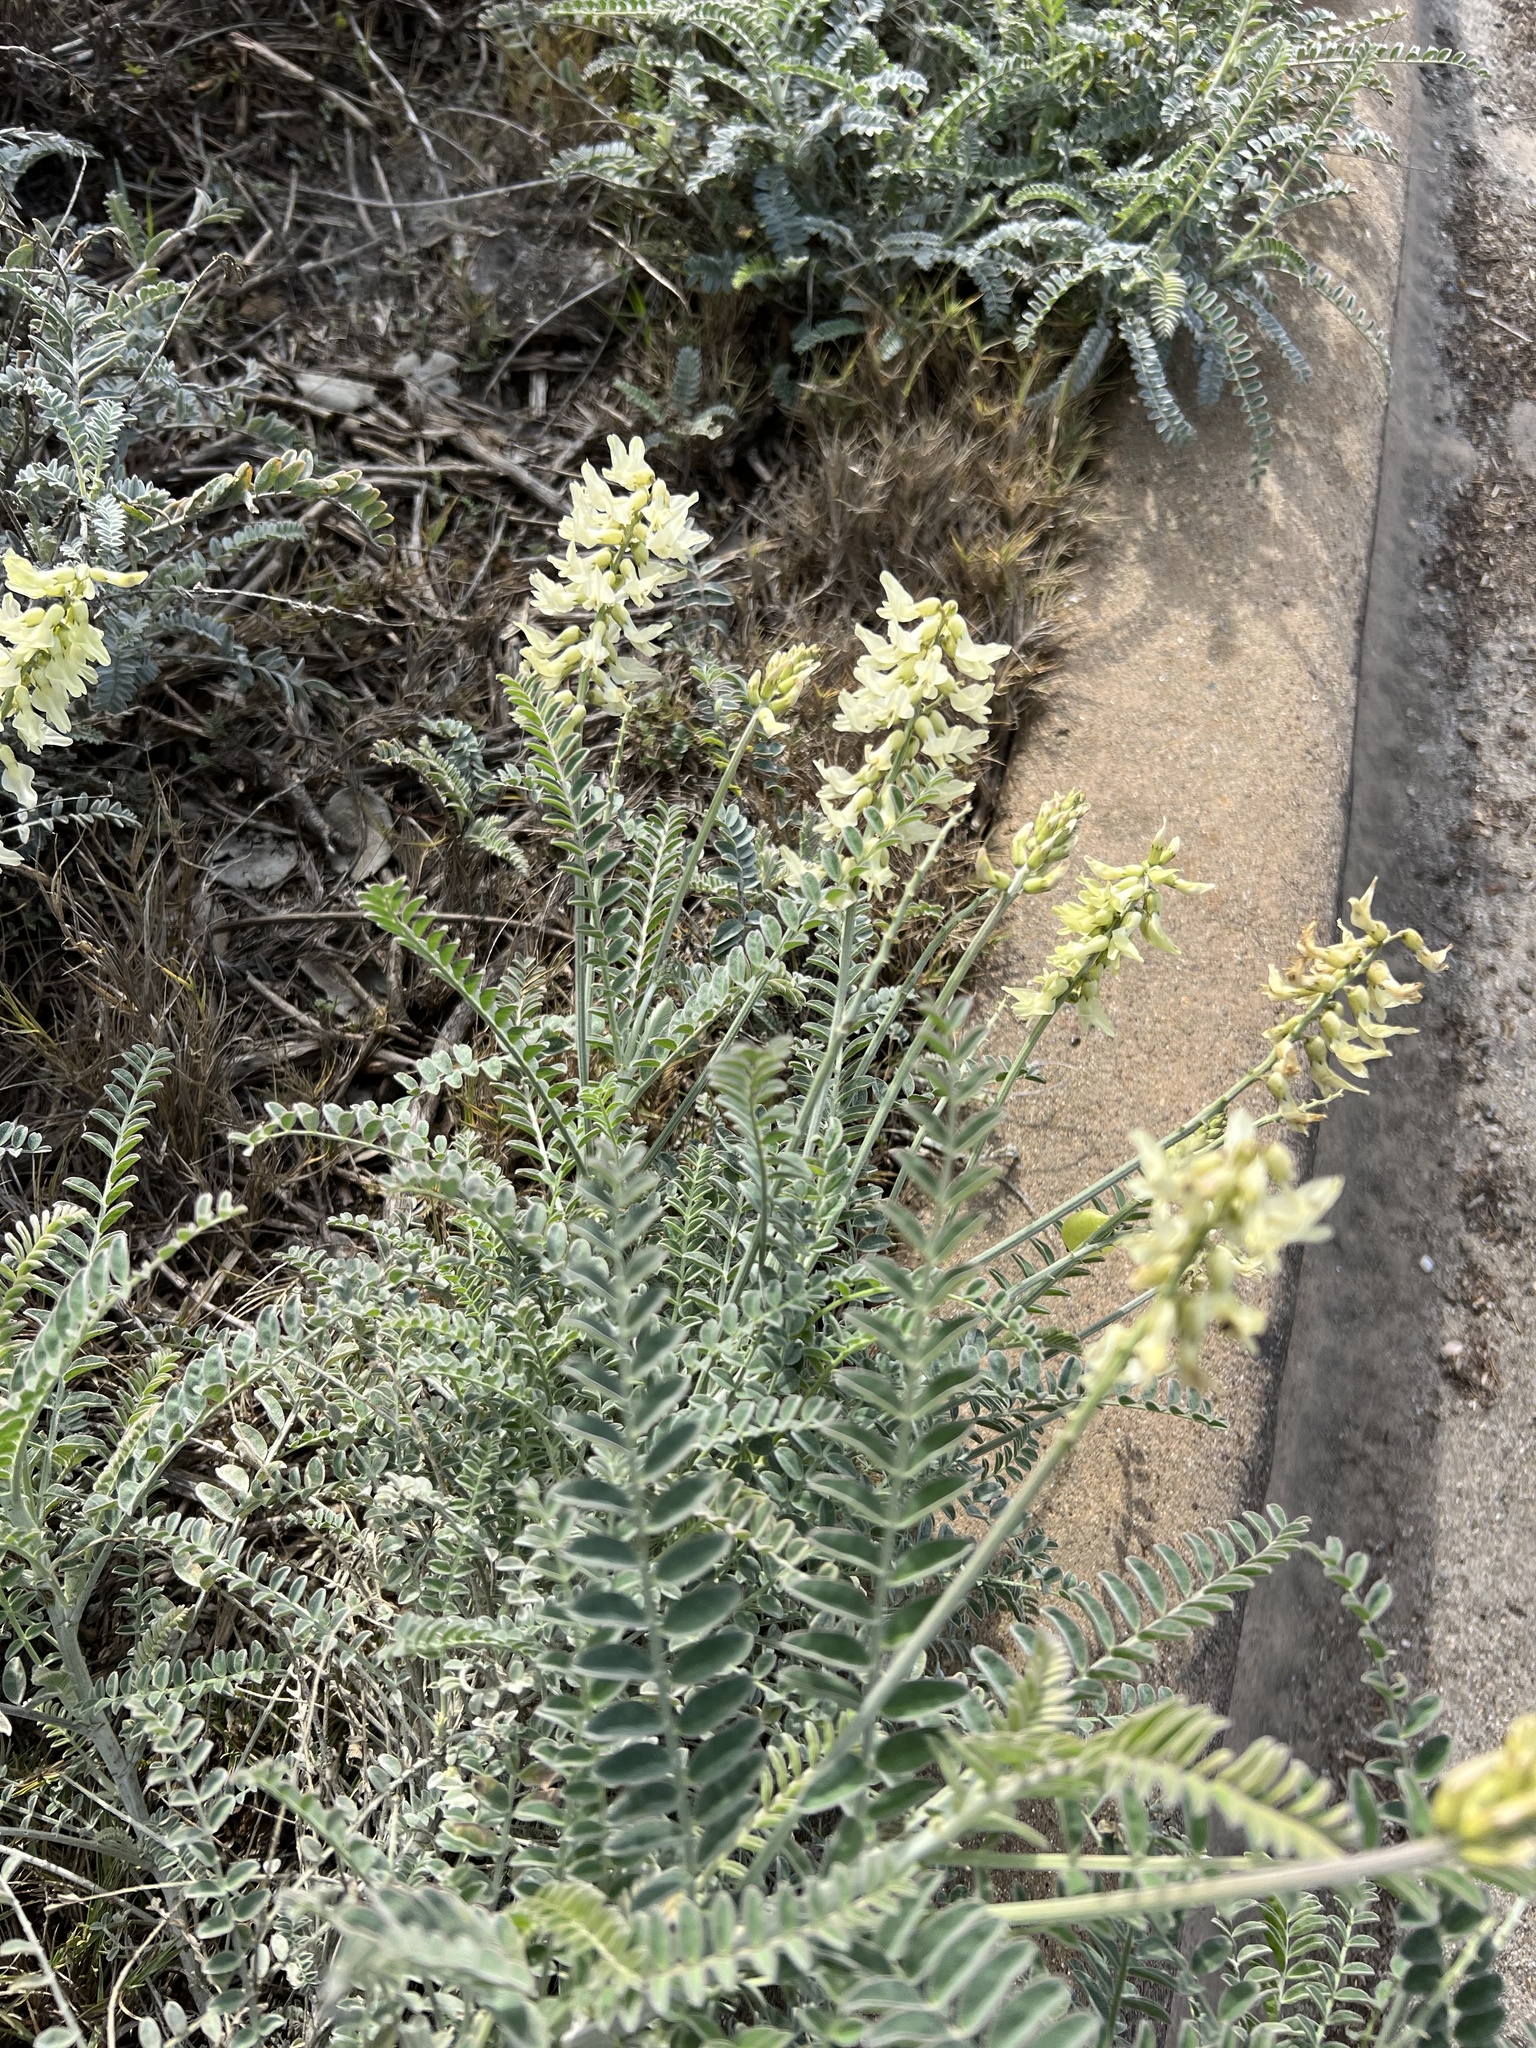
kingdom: Plantae
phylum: Tracheophyta
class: Magnoliopsida
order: Fabales
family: Fabaceae
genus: Astragalus
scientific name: Astragalus trichopodus
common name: Santa barbara milk-vetch
